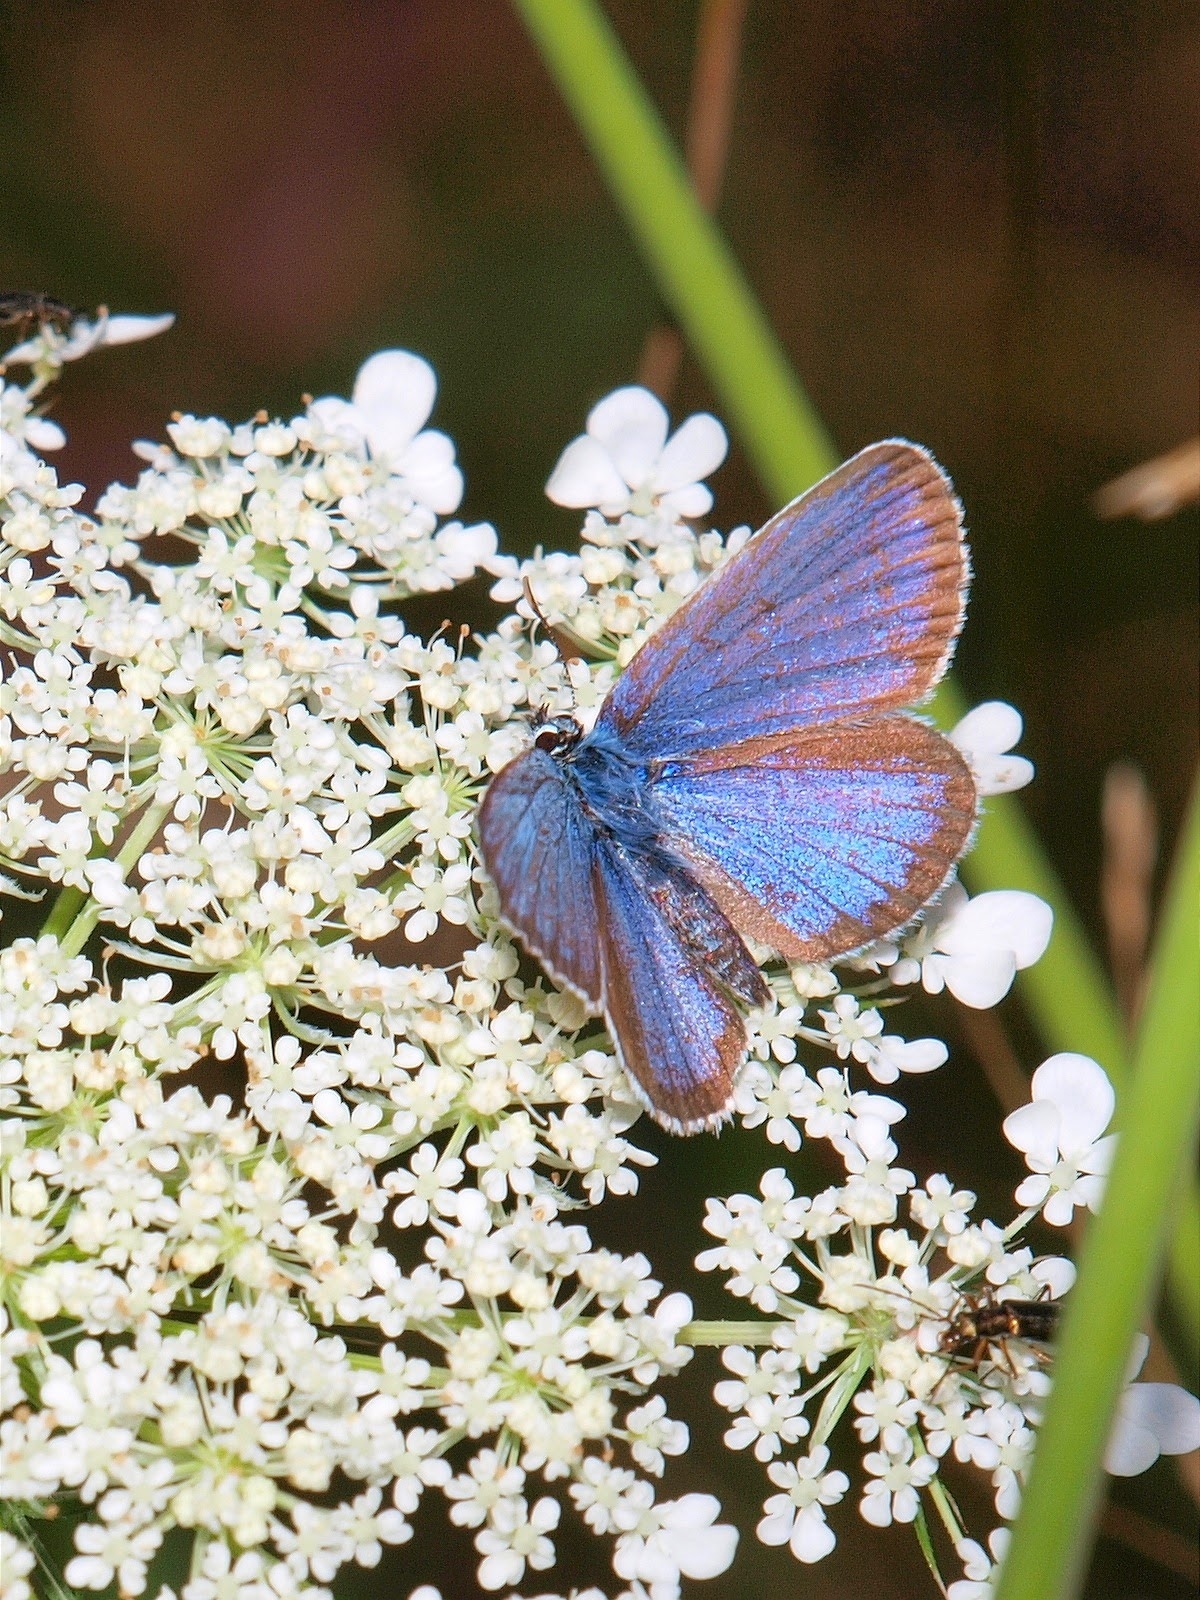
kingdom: Animalia
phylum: Arthropoda
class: Insecta
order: Lepidoptera
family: Lycaenidae
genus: Plebejus
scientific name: Plebejus argus
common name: Silver-studded blue
